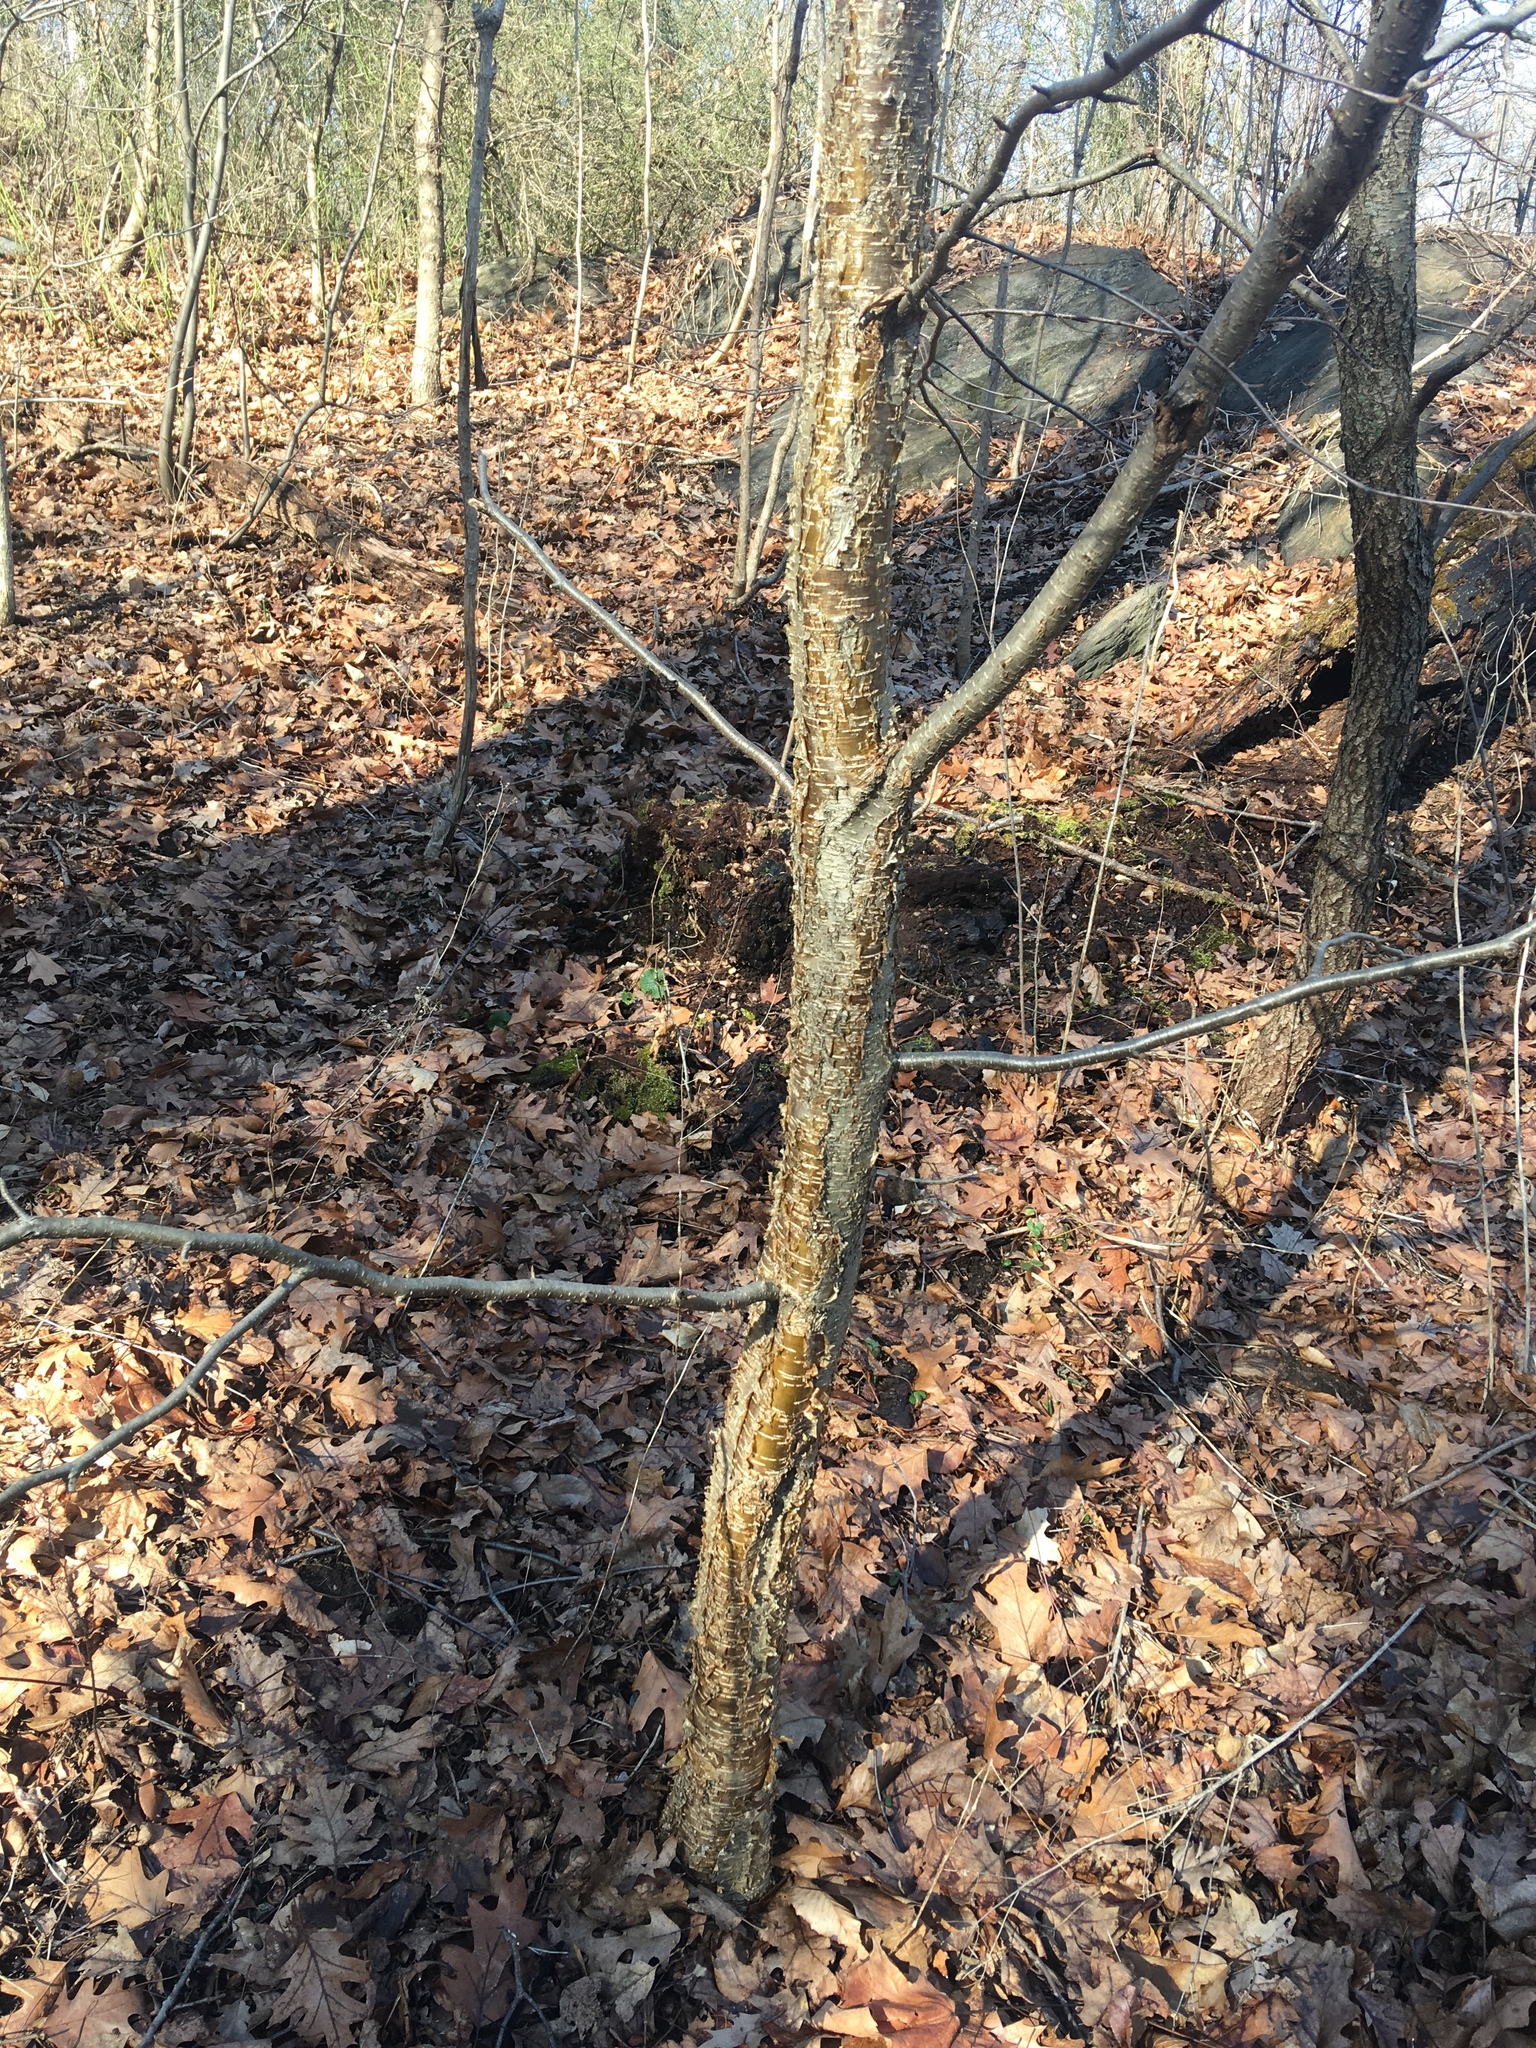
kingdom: Plantae
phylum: Tracheophyta
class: Magnoliopsida
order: Fagales
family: Betulaceae
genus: Betula
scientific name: Betula alleghaniensis
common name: Yellow birch
